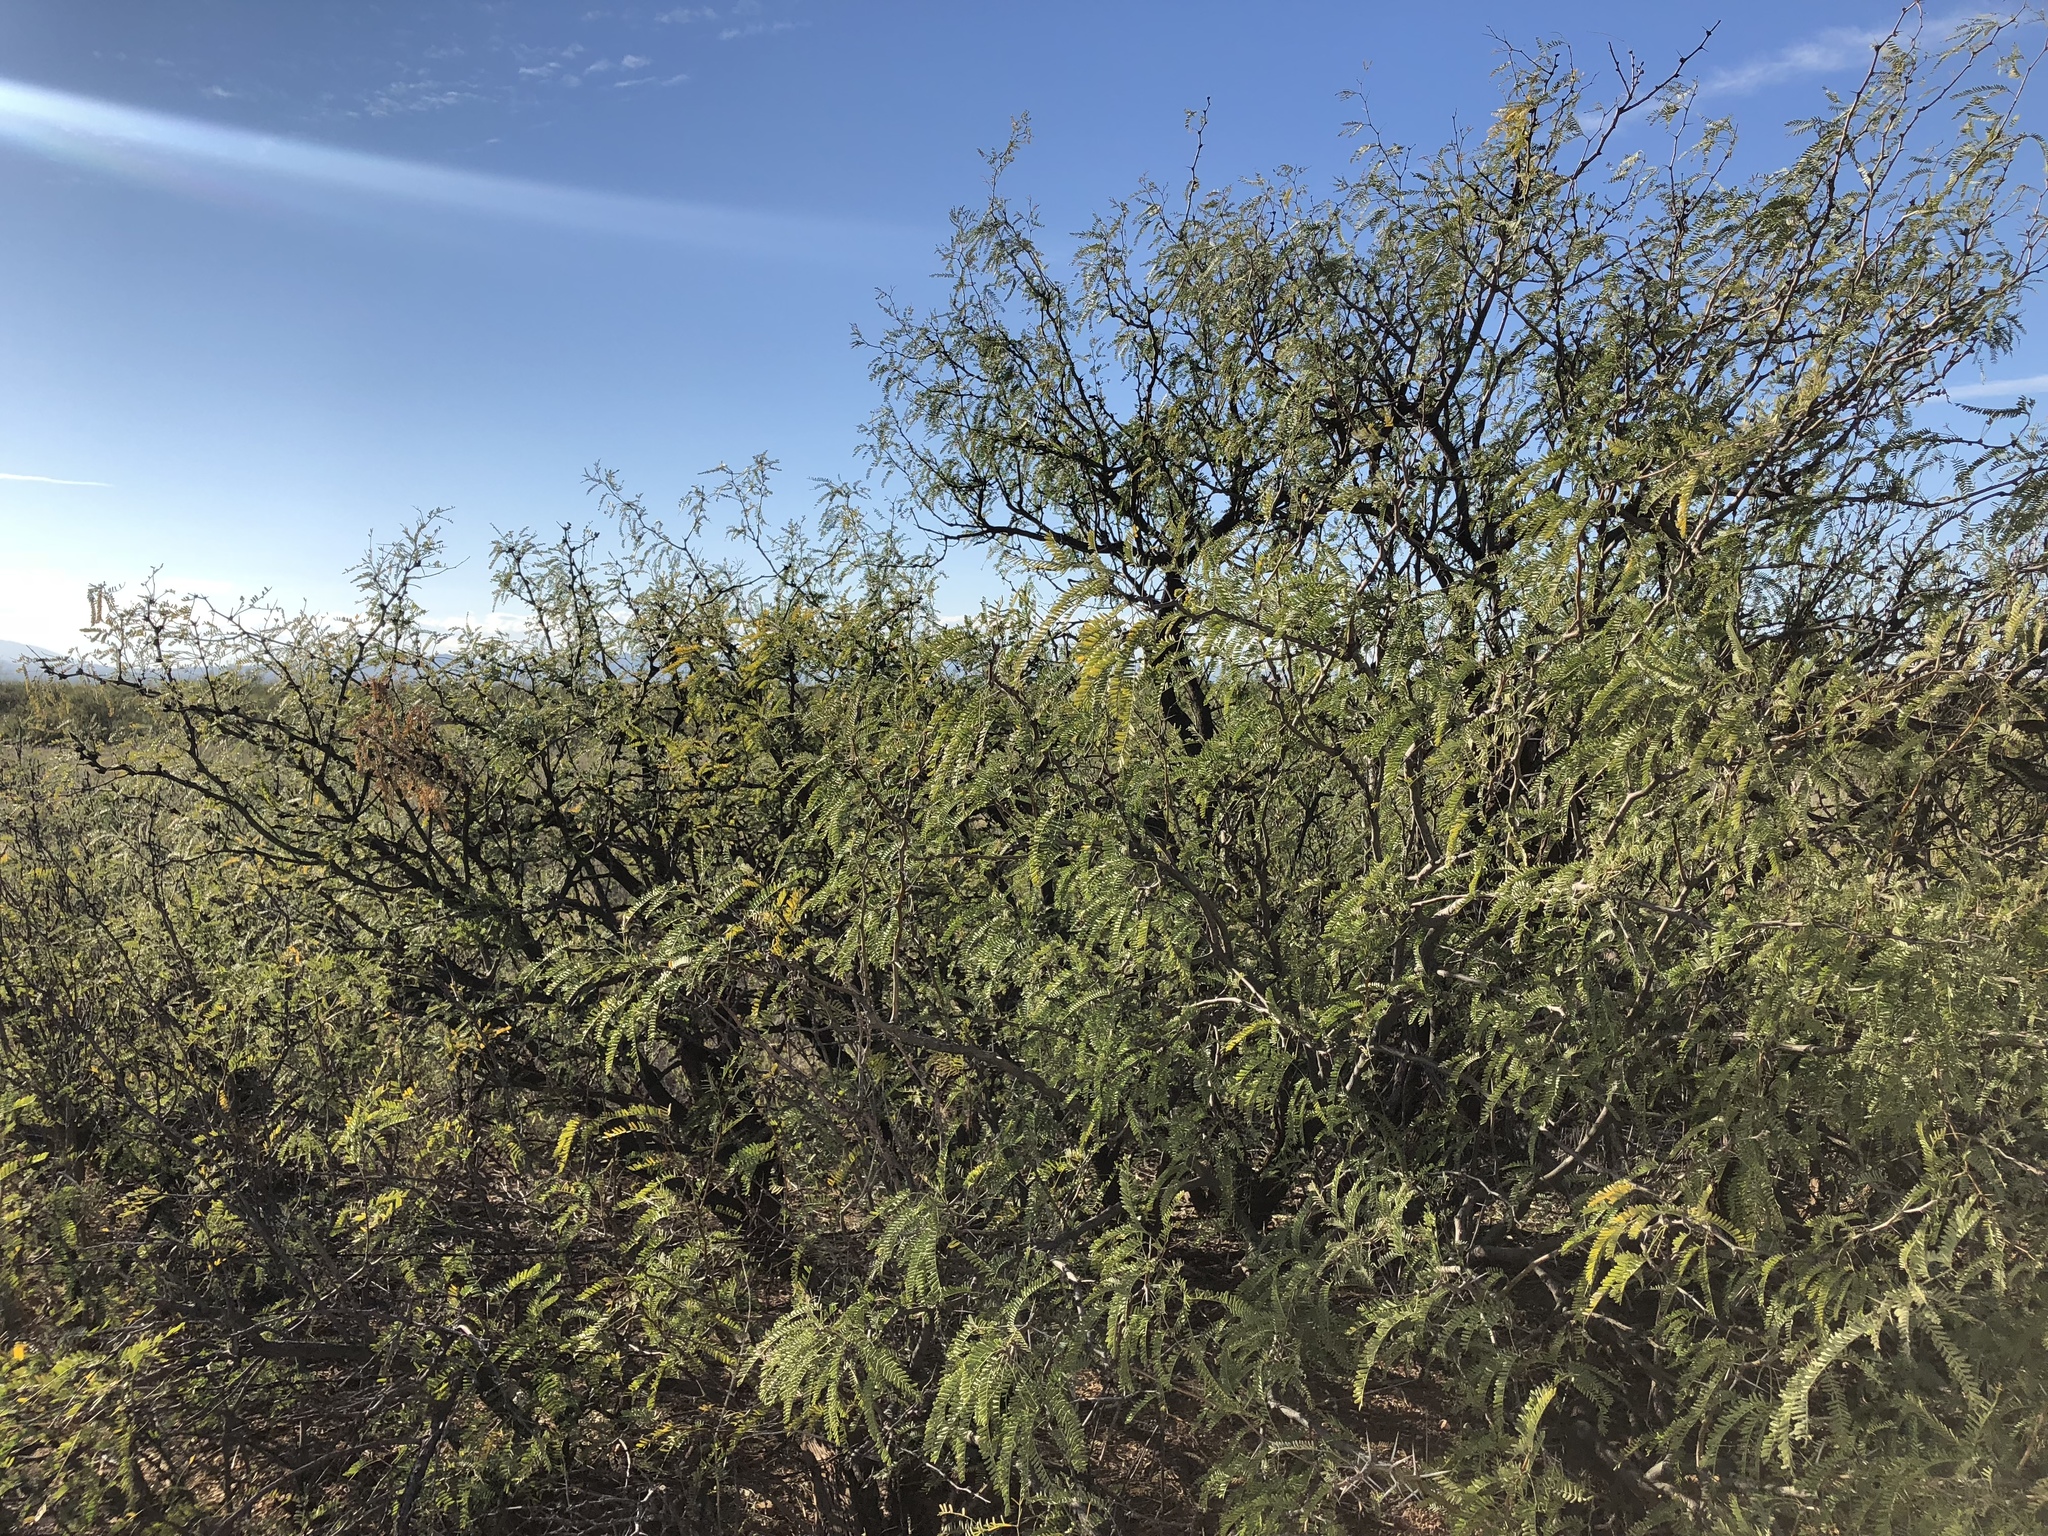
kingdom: Plantae
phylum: Tracheophyta
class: Magnoliopsida
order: Fabales
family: Fabaceae
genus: Prosopis
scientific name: Prosopis glandulosa
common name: Honey mesquite
